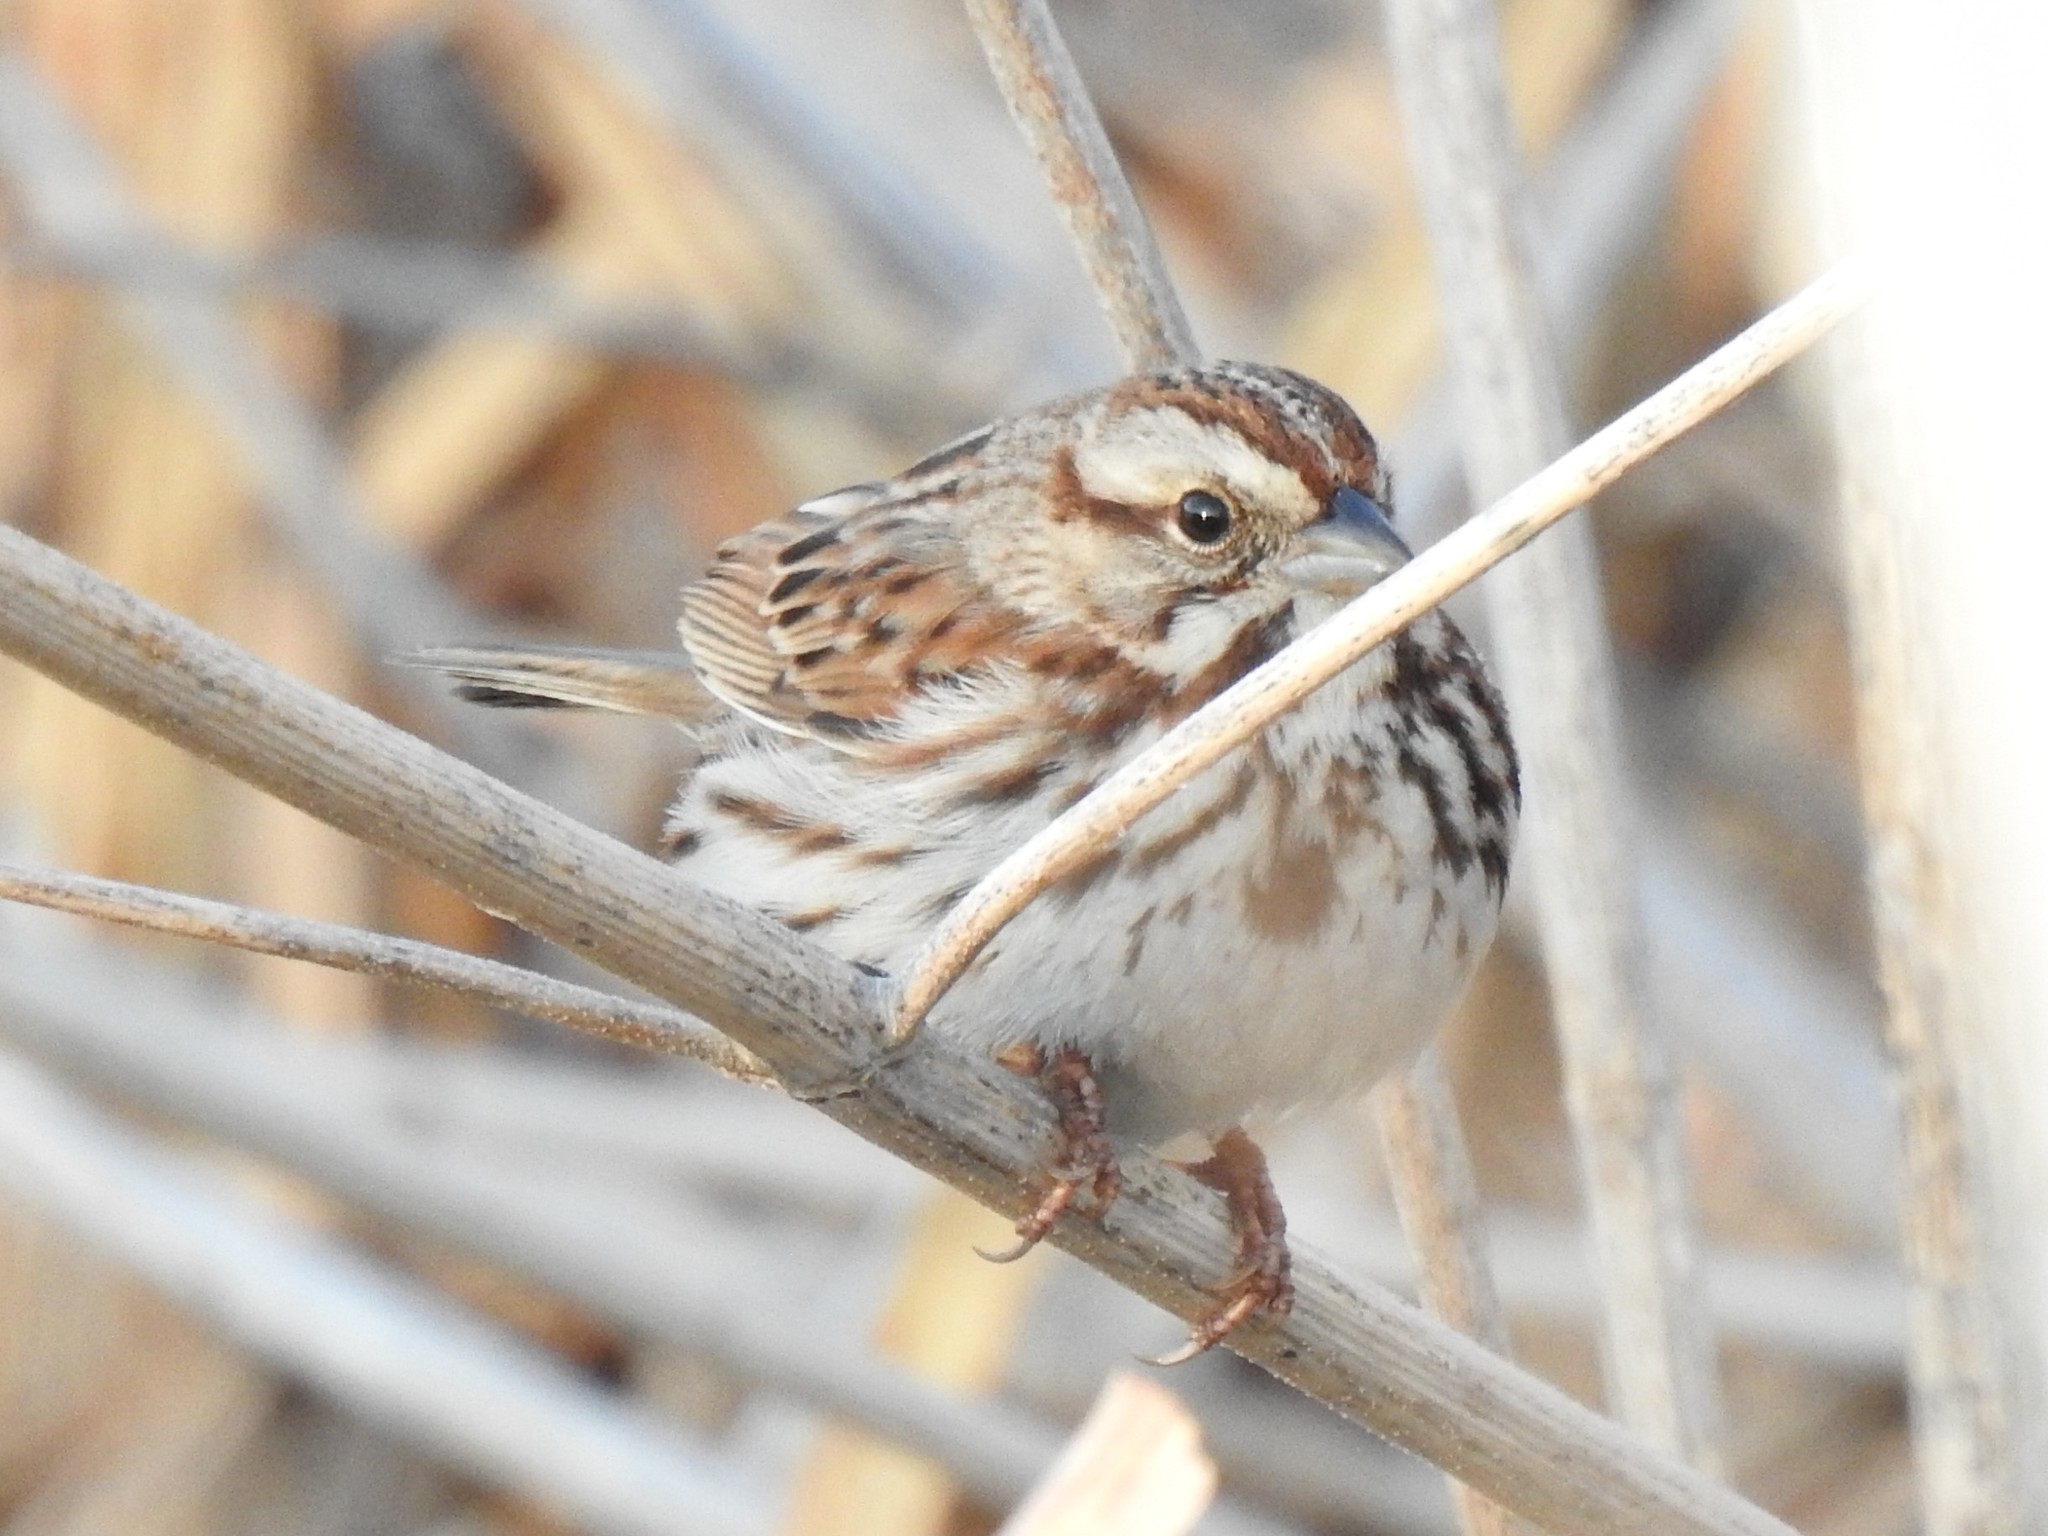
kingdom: Animalia
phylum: Chordata
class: Aves
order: Passeriformes
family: Passerellidae
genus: Melospiza
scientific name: Melospiza melodia
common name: Song sparrow
